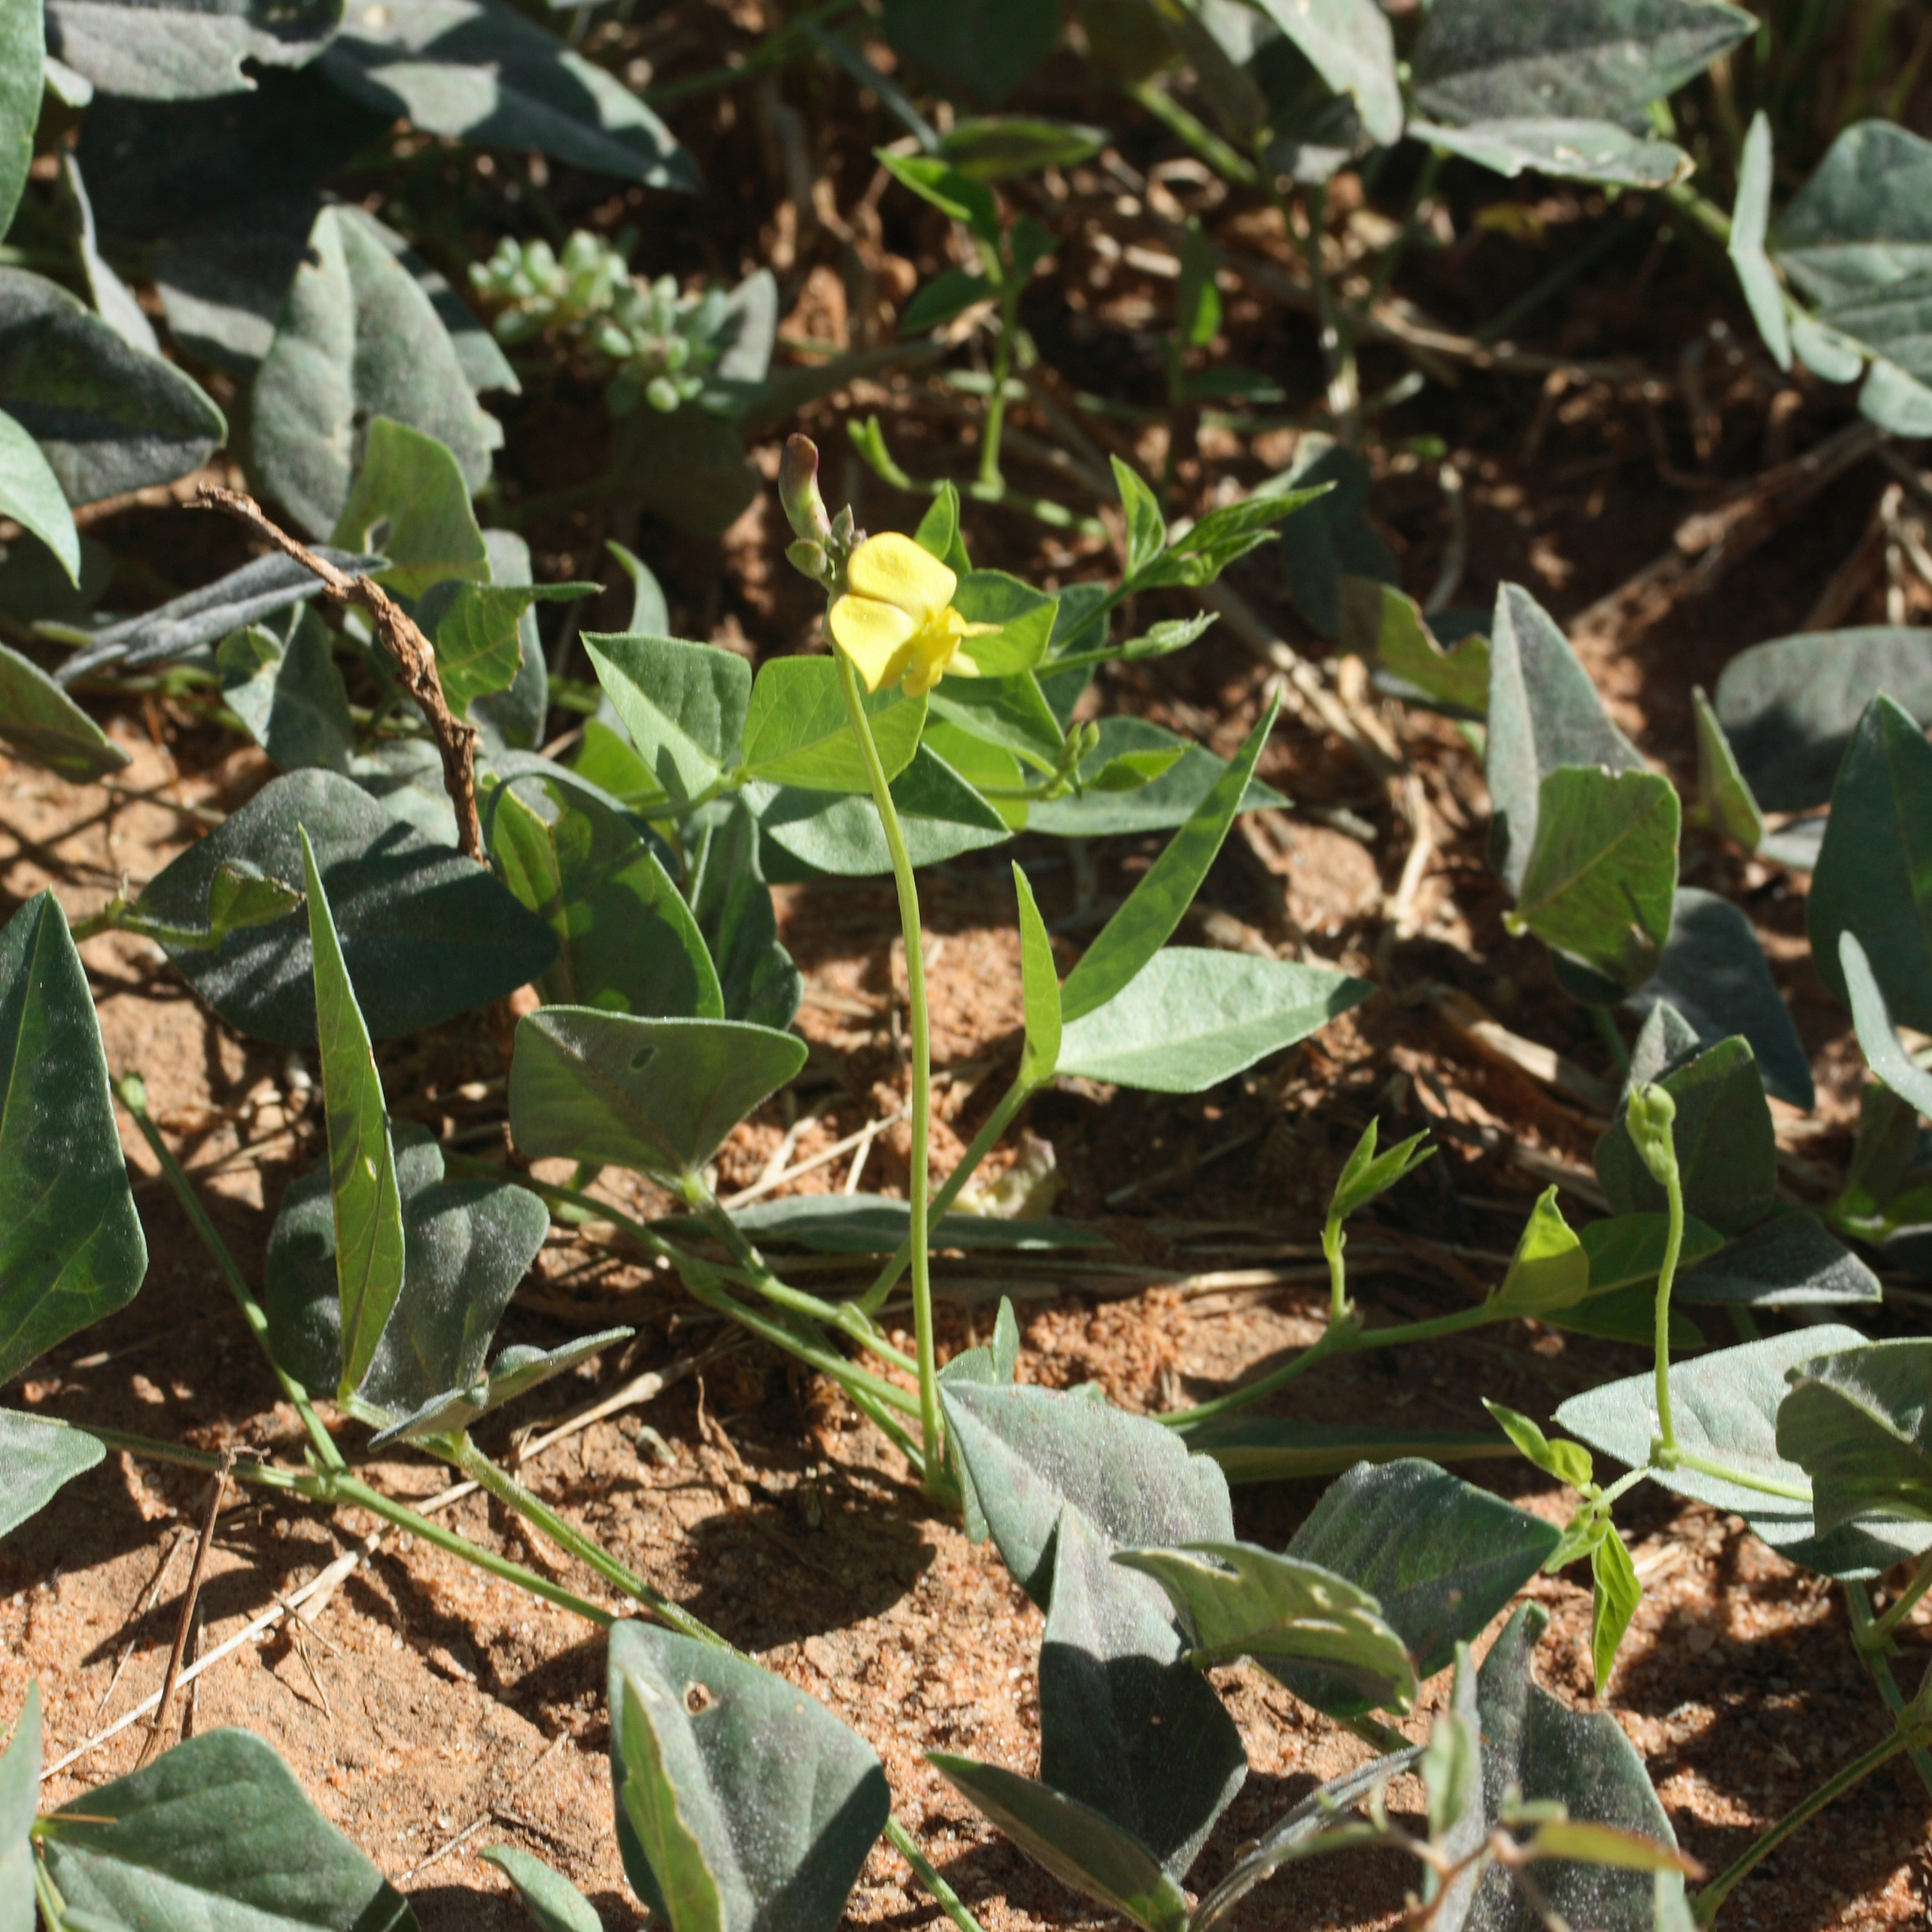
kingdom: Plantae
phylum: Tracheophyta
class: Magnoliopsida
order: Fabales
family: Fabaceae
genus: Vigna
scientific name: Vigna lanceolata
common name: Maloga-bean
